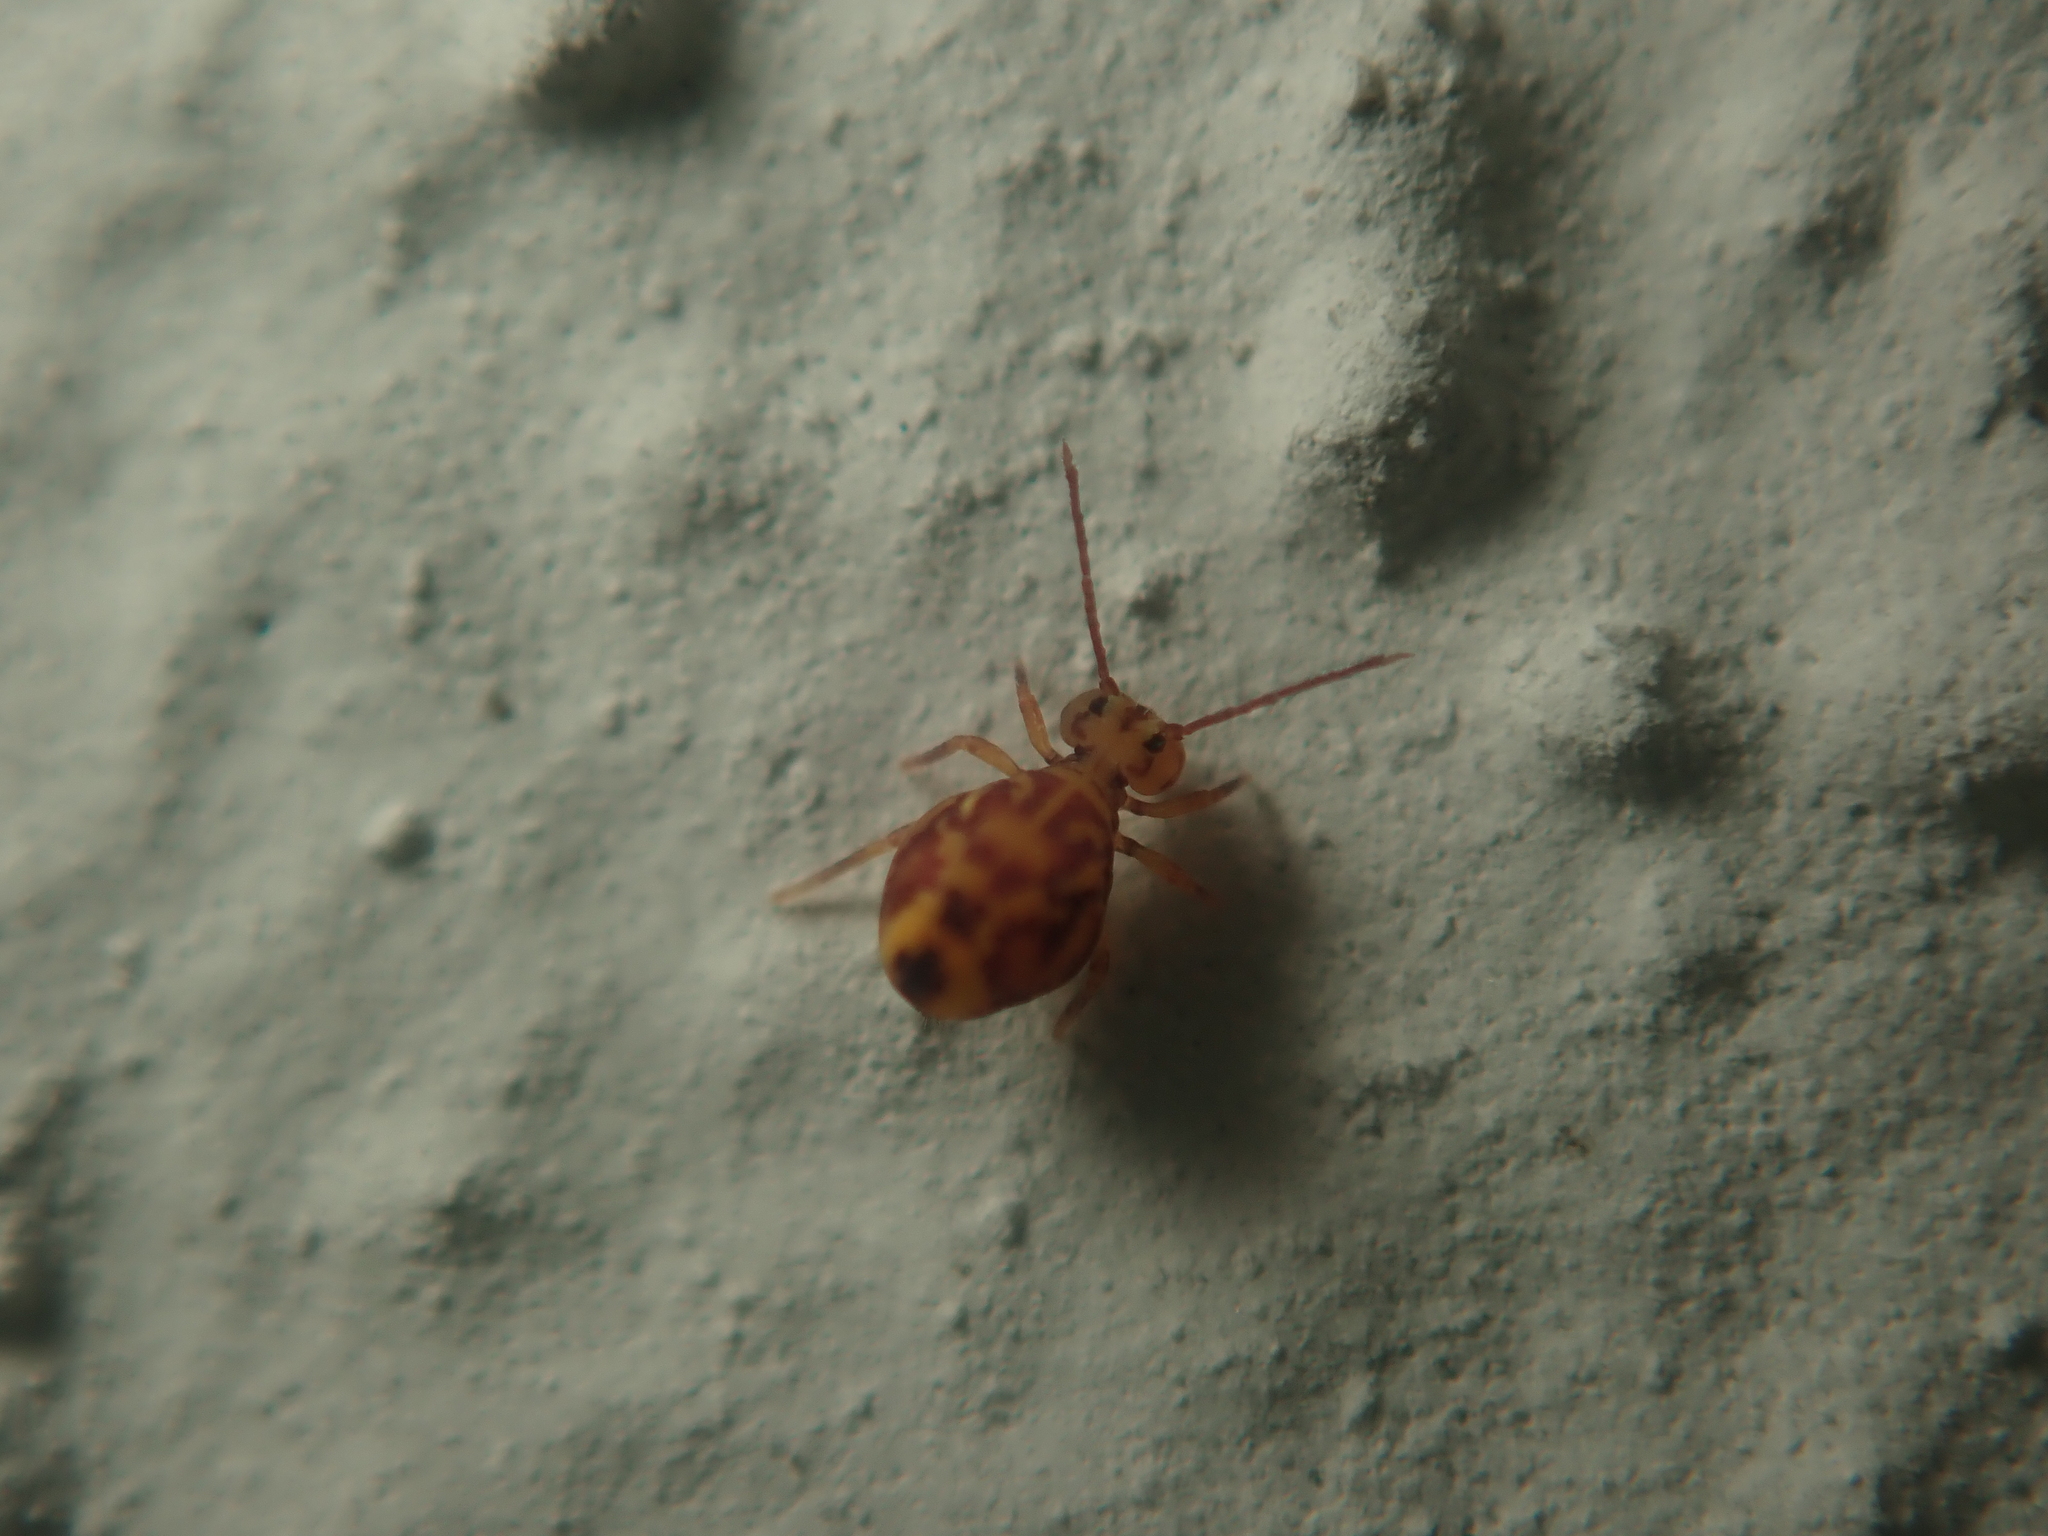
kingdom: Animalia
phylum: Arthropoda
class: Collembola
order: Symphypleona
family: Dicyrtomidae
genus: Dicyrtomina
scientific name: Dicyrtomina ornata
